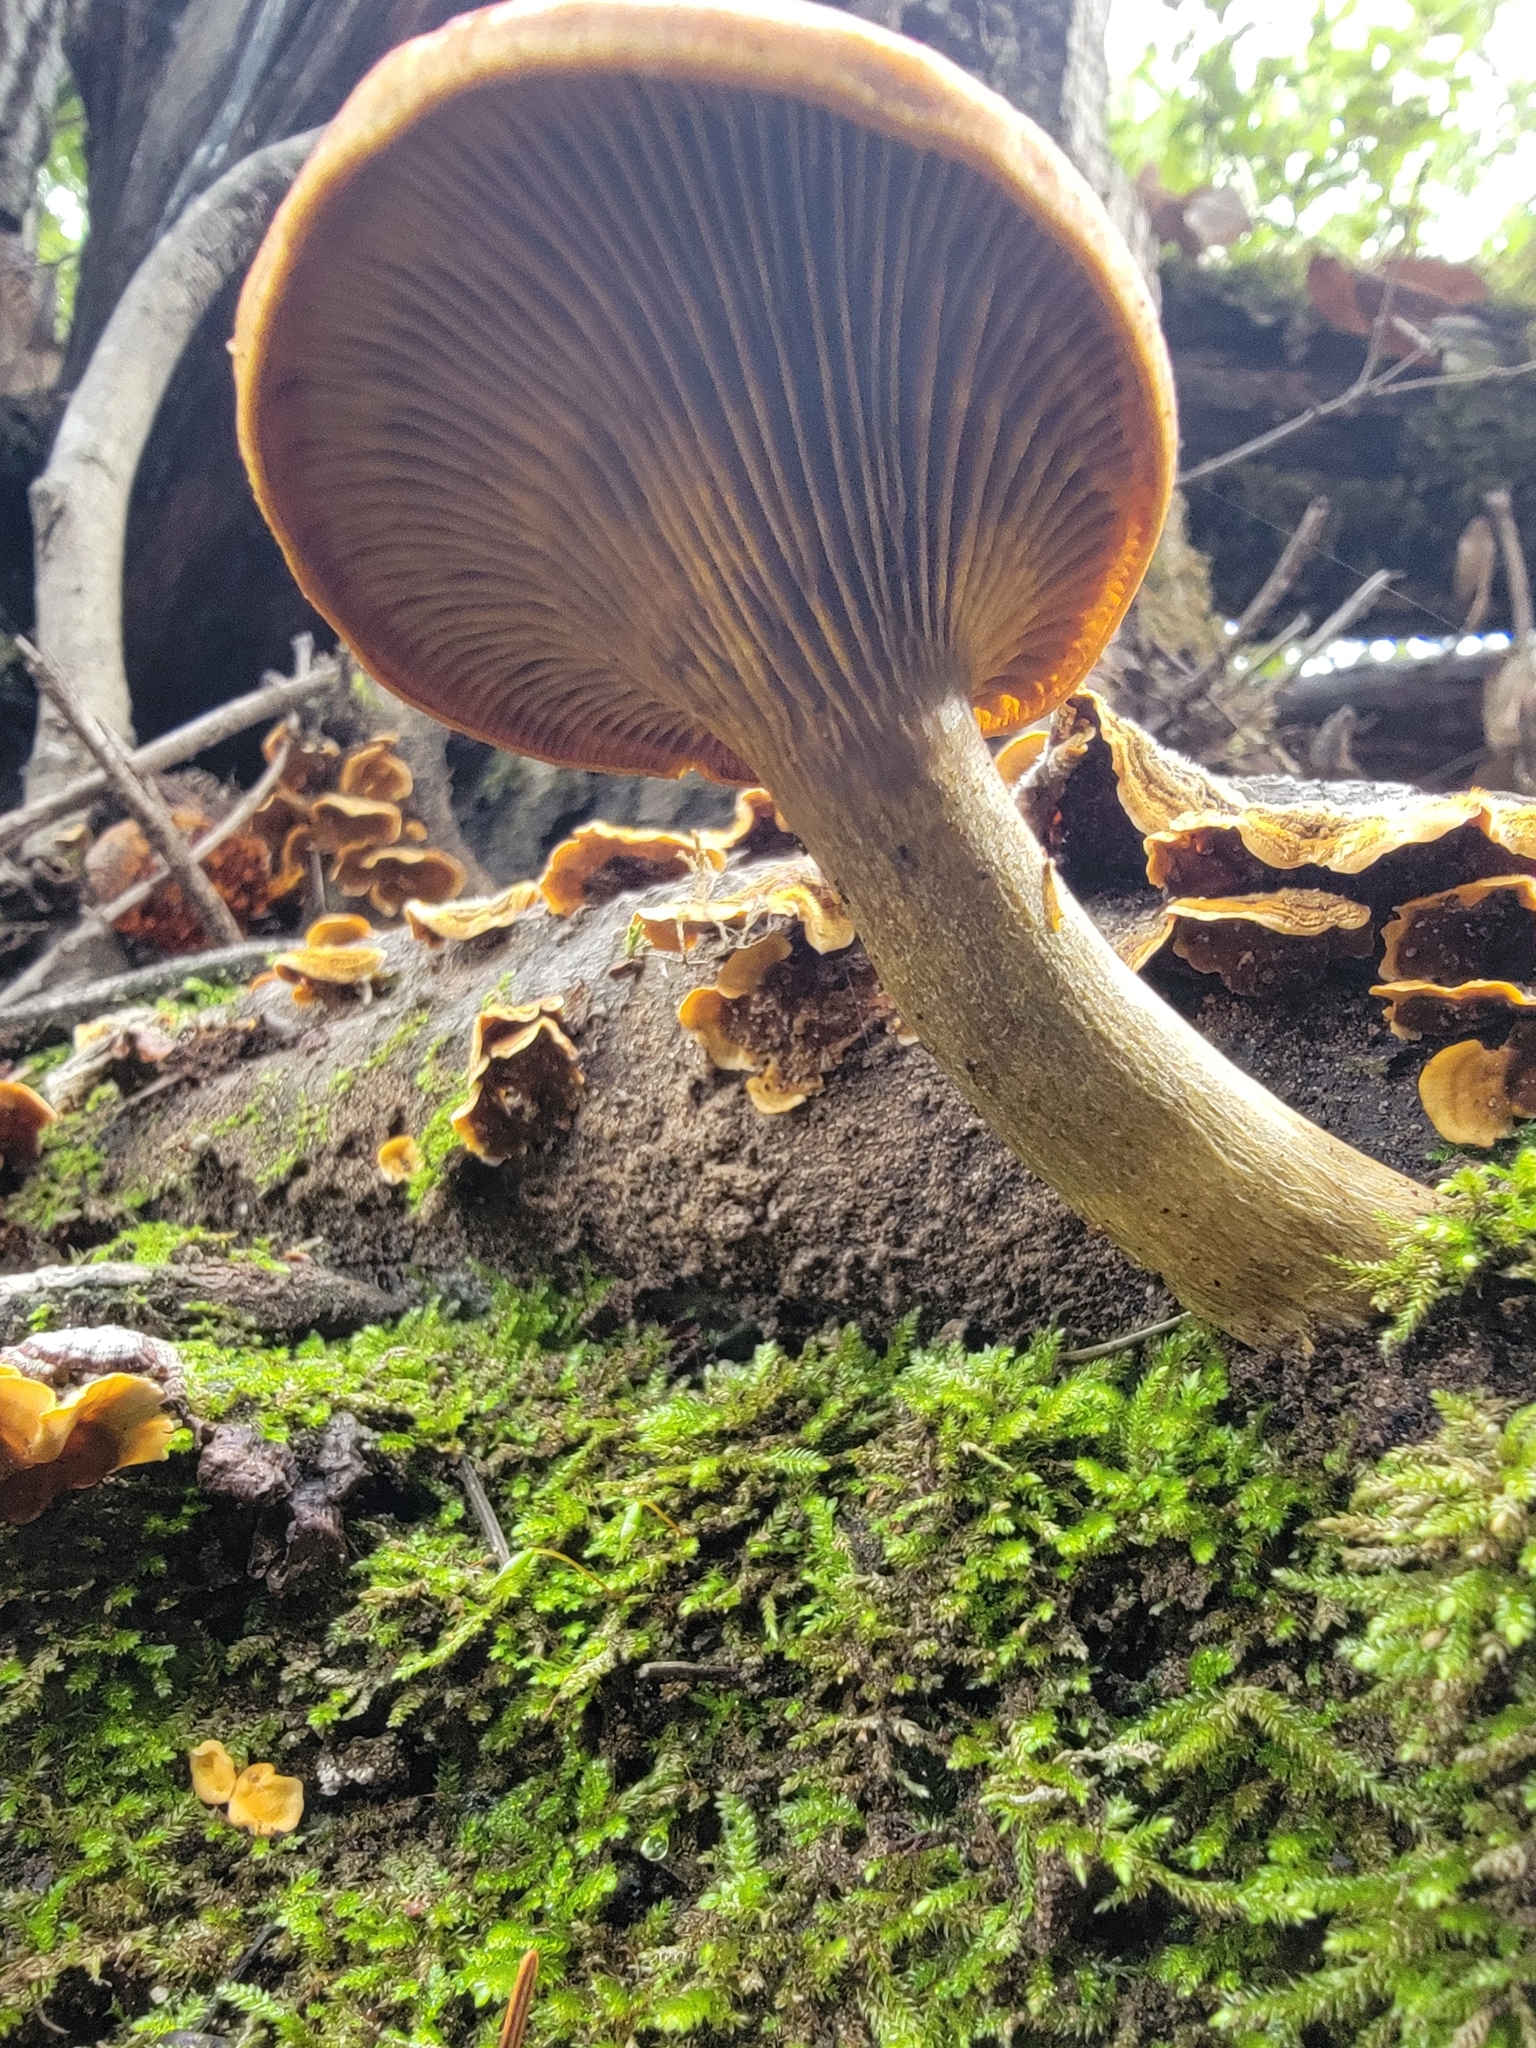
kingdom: Fungi
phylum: Basidiomycota
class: Agaricomycetes
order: Agaricales
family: Omphalotaceae
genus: Omphalotus
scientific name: Omphalotus olivascens
